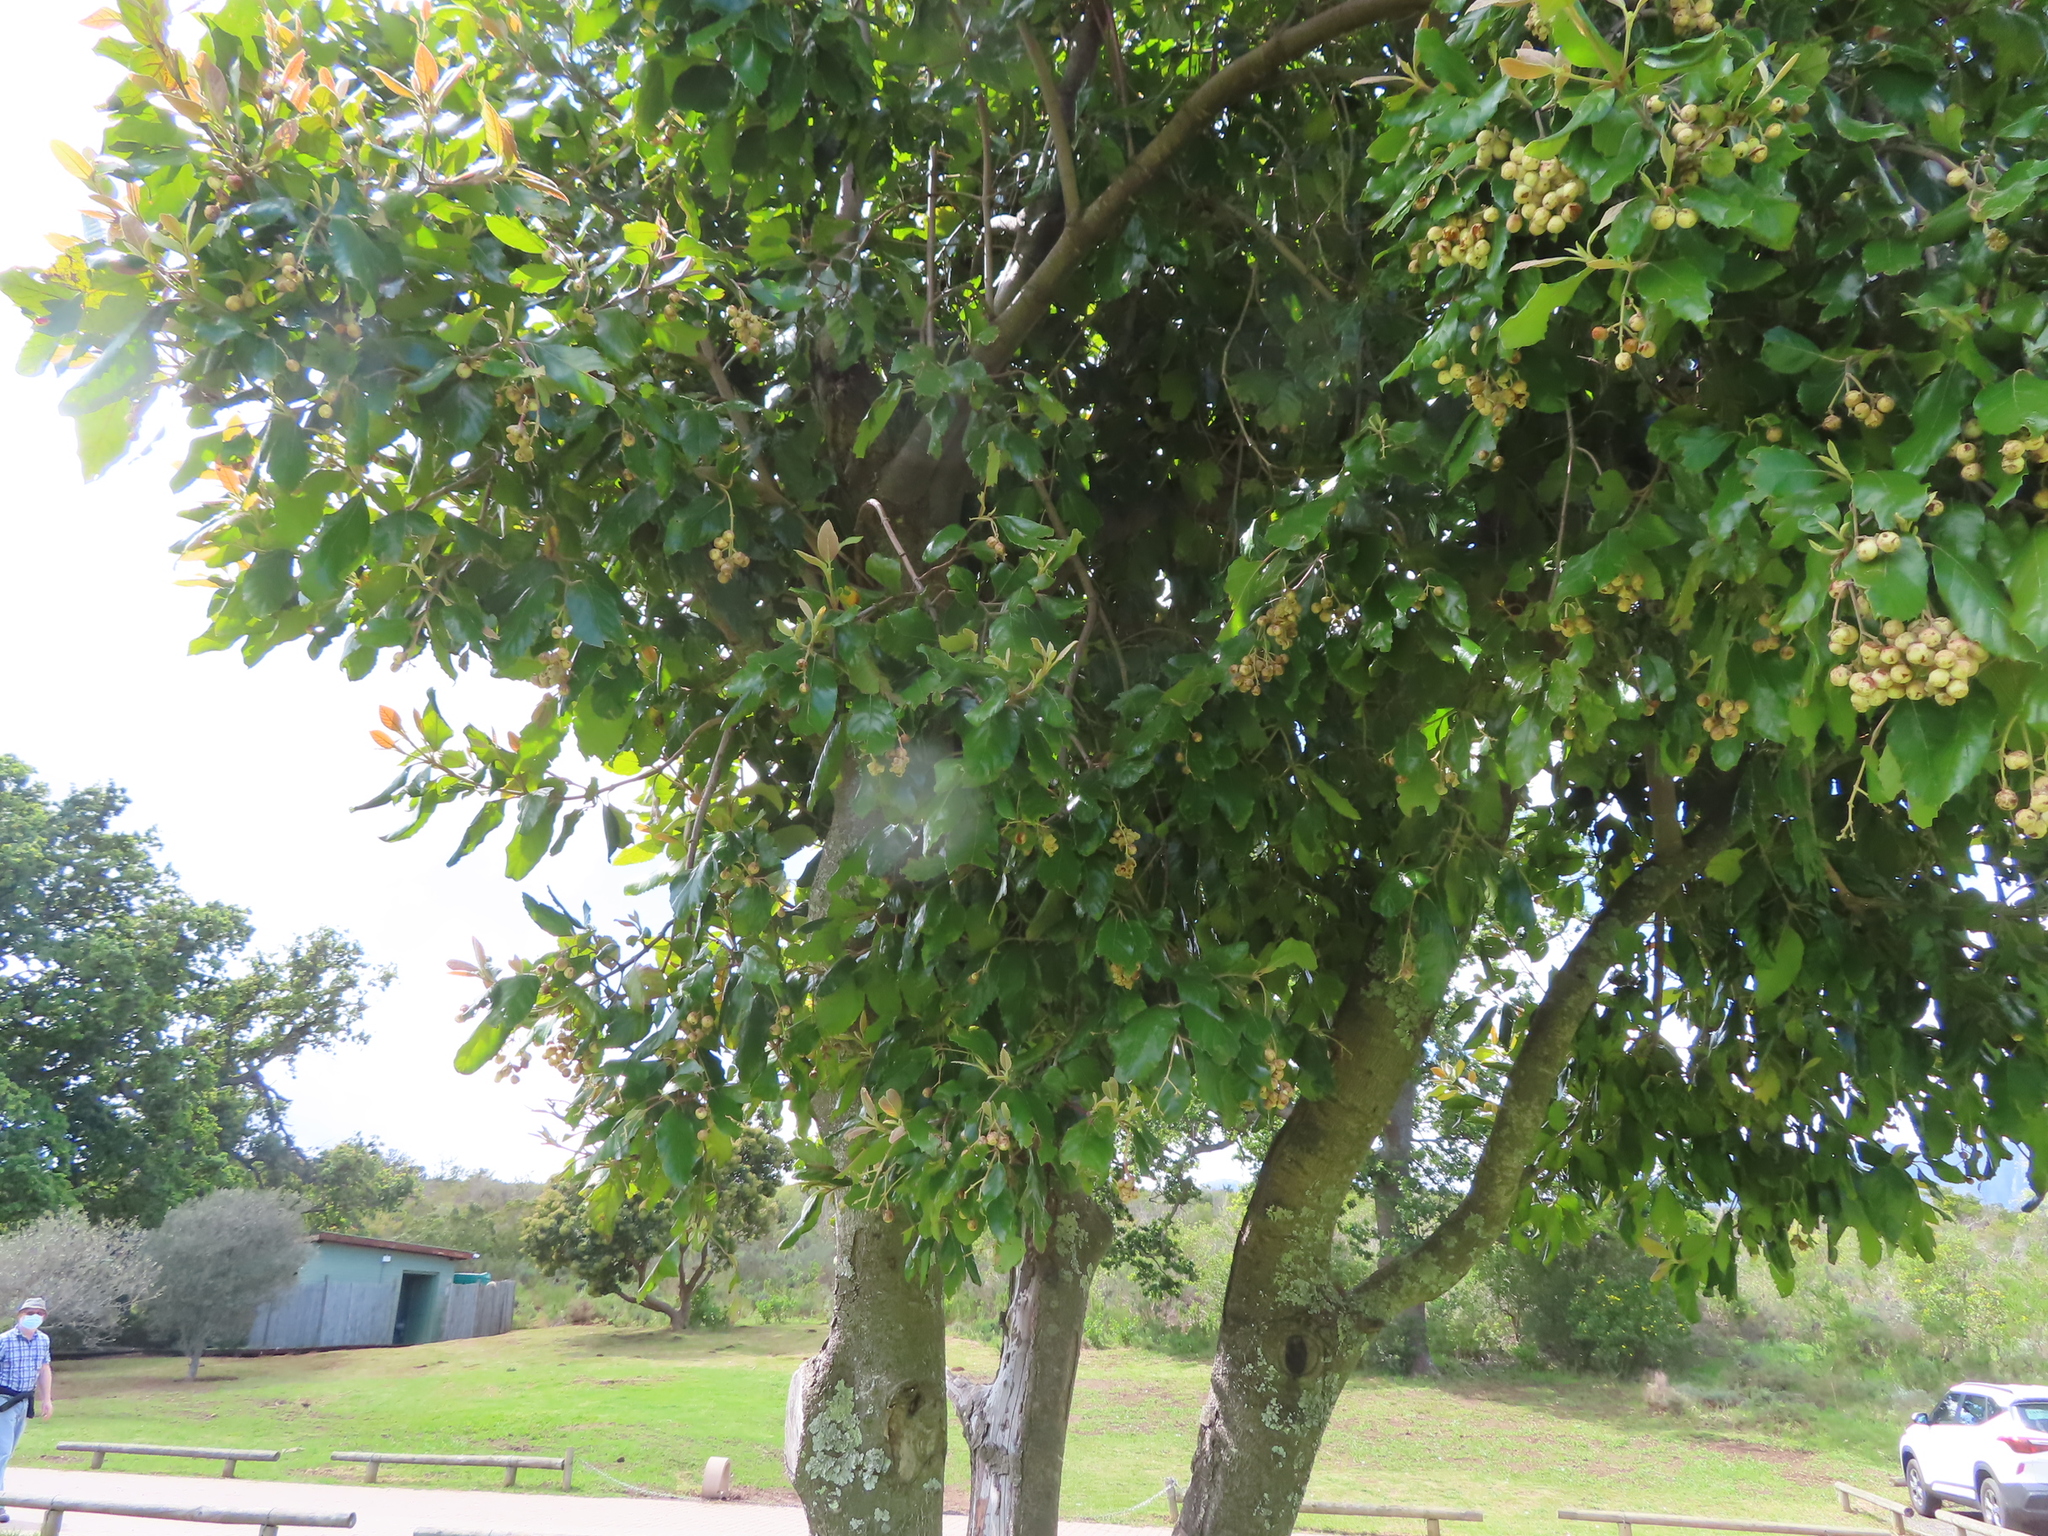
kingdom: Plantae
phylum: Tracheophyta
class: Magnoliopsida
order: Cornales
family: Curtisiaceae
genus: Curtisia
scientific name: Curtisia dentata
